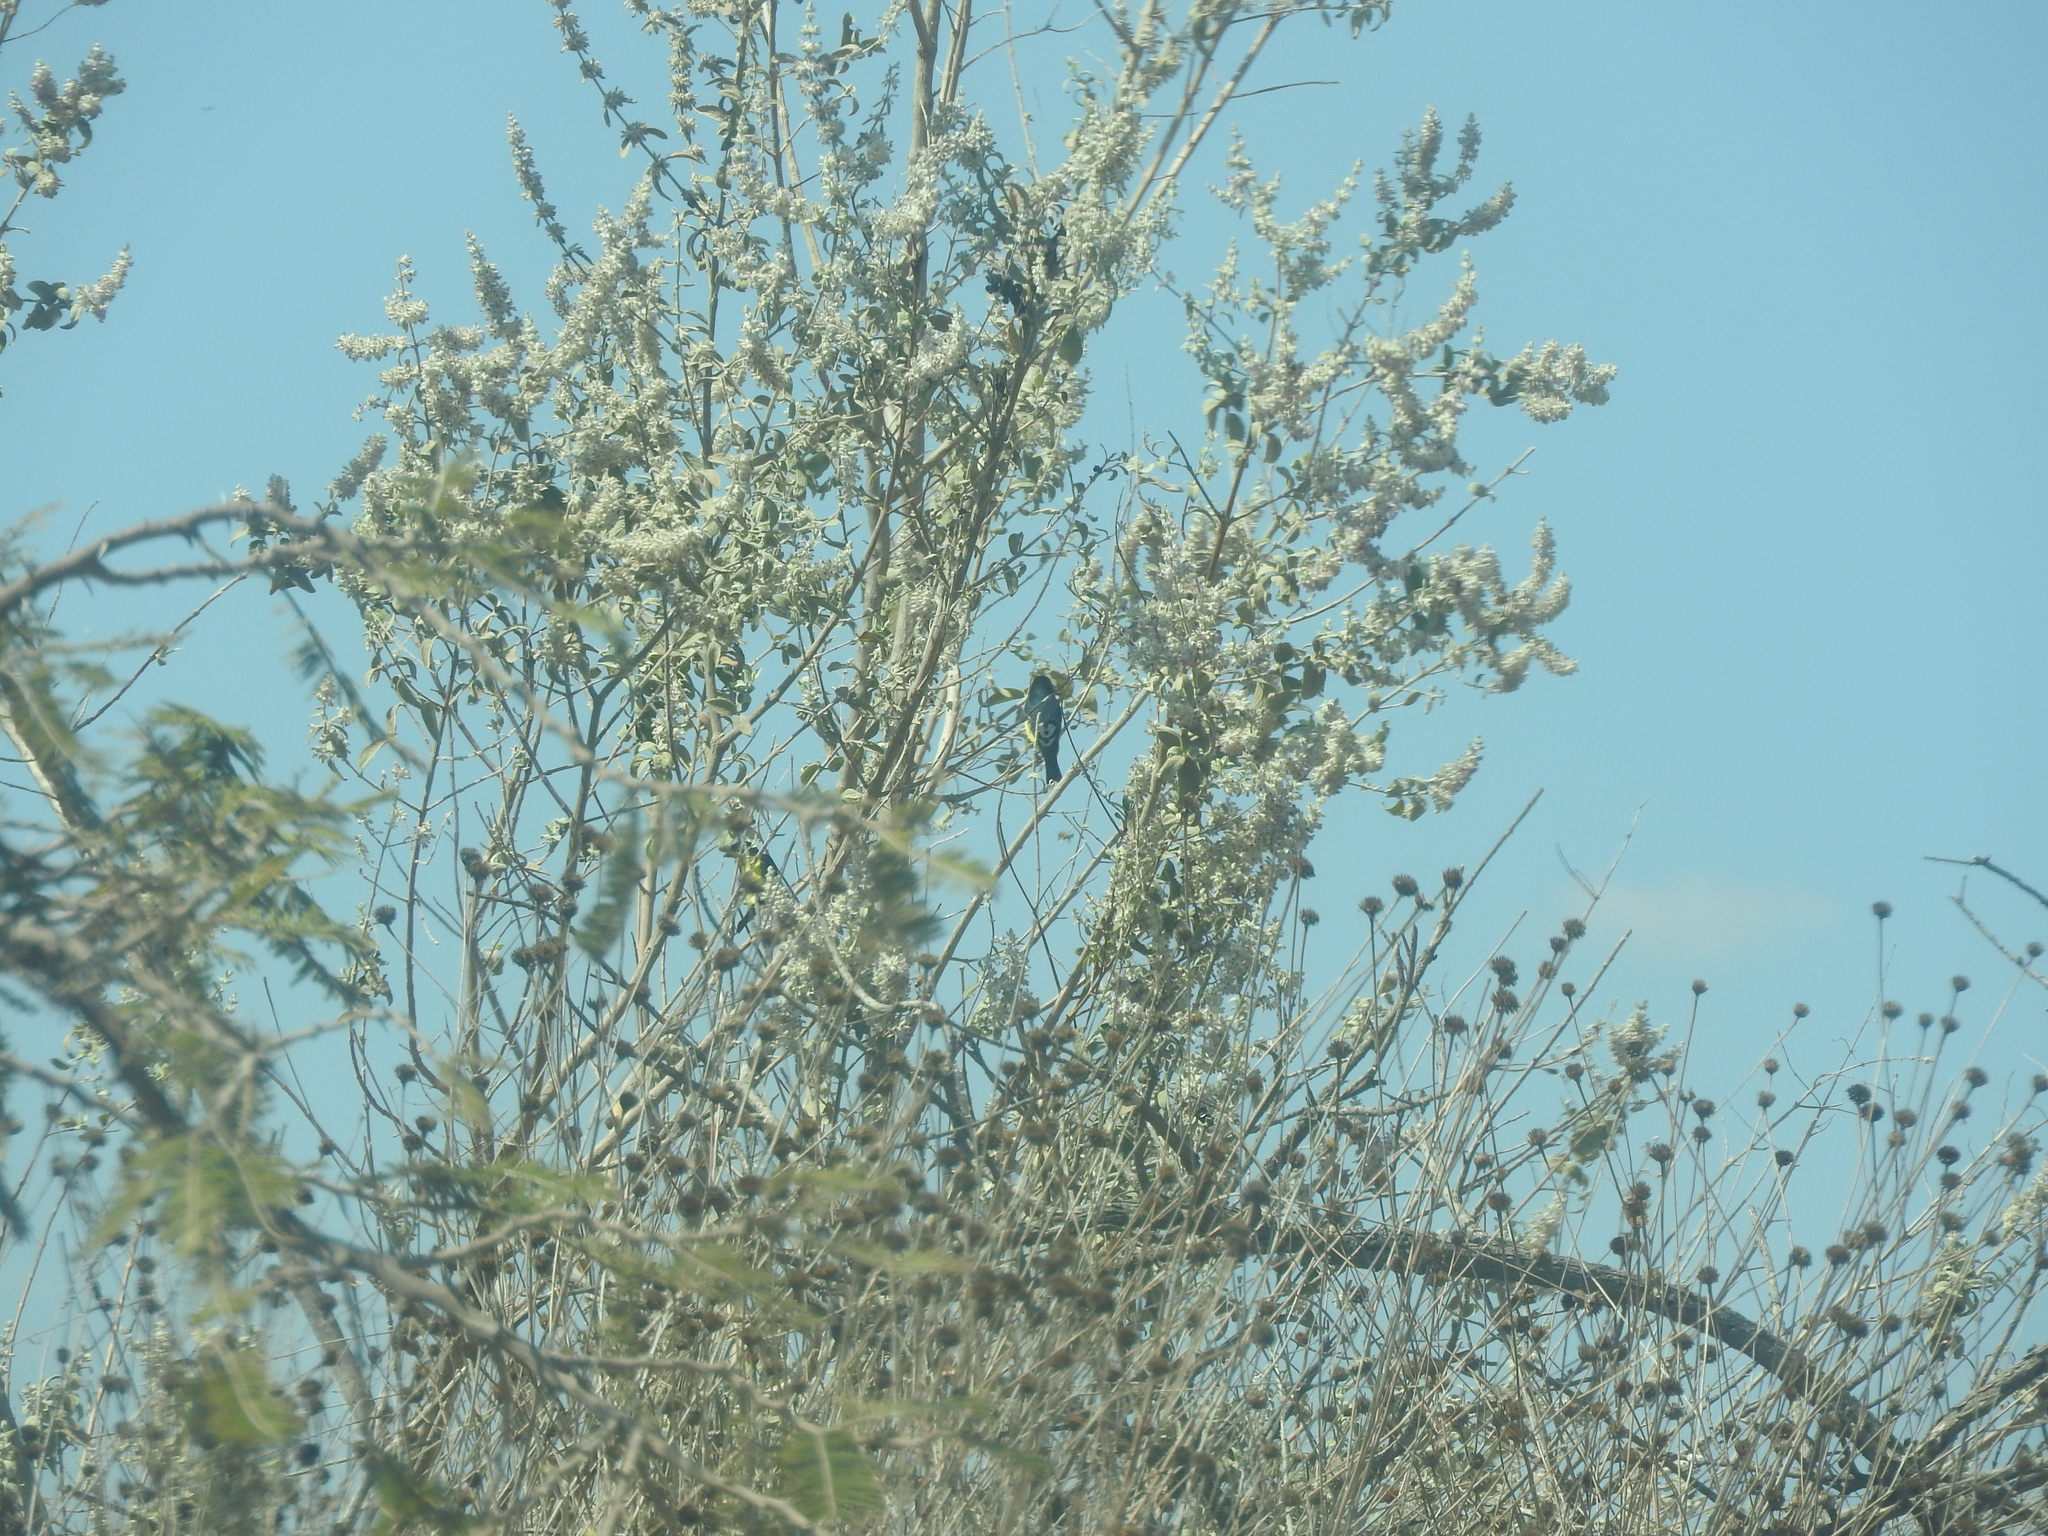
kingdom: Animalia
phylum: Chordata
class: Aves
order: Passeriformes
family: Fringillidae
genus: Spinus
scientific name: Spinus psaltria
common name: Lesser goldfinch
